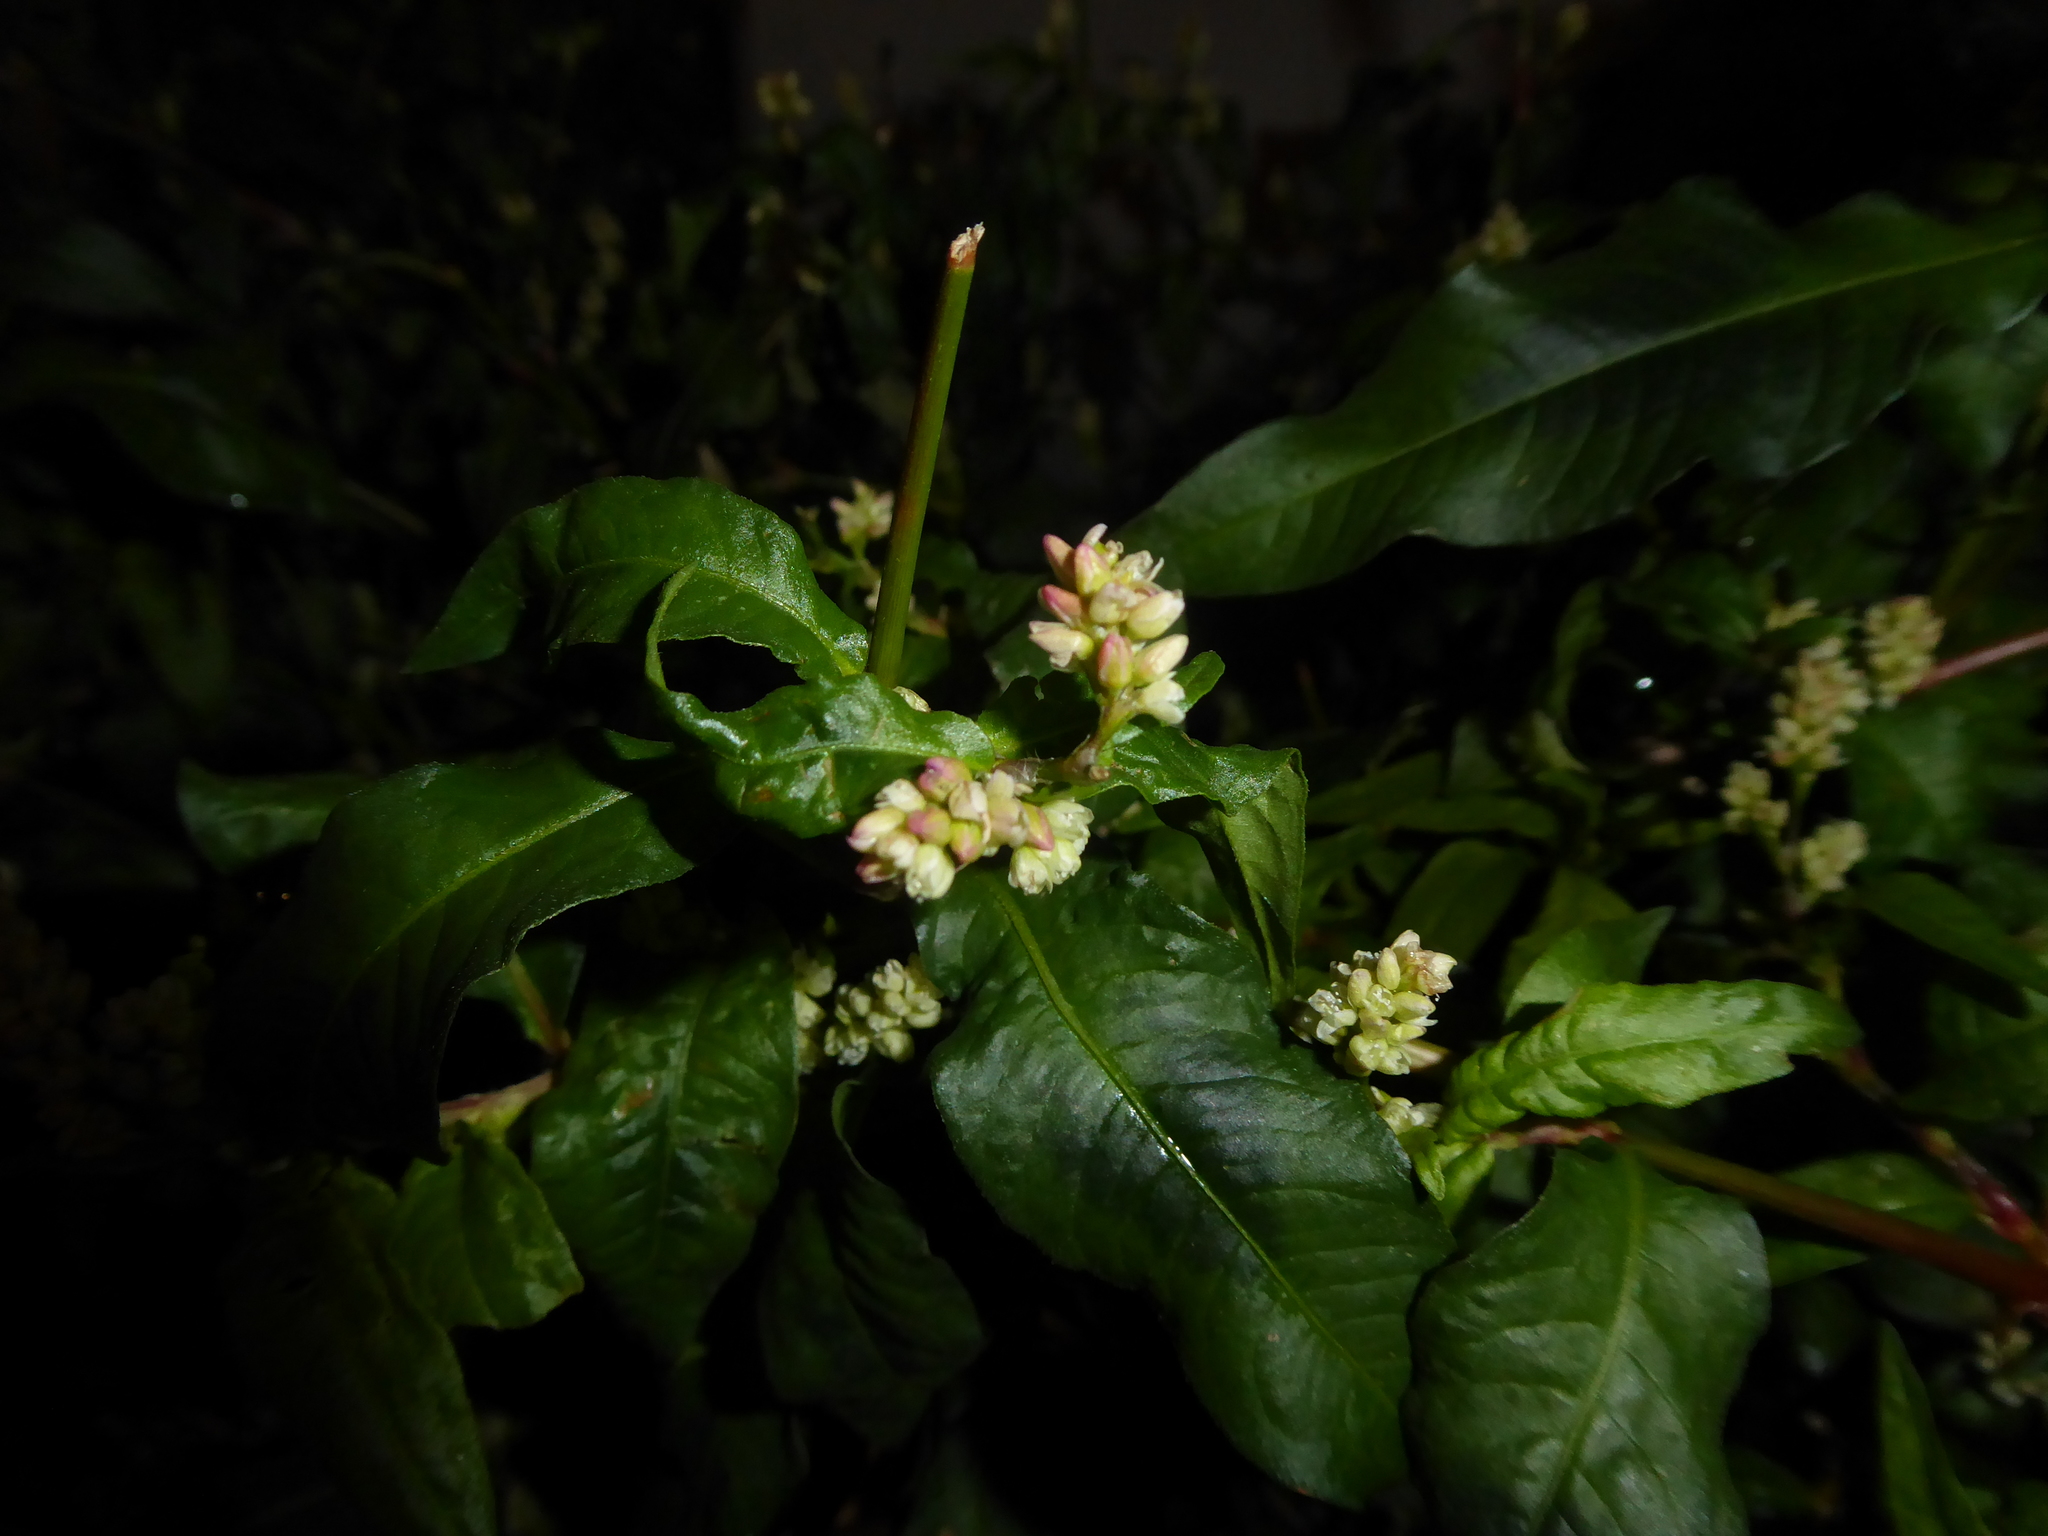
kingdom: Plantae
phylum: Tracheophyta
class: Magnoliopsida
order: Caryophyllales
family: Polygonaceae
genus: Persicaria
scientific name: Persicaria lapathifolia
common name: Curlytop knotweed
